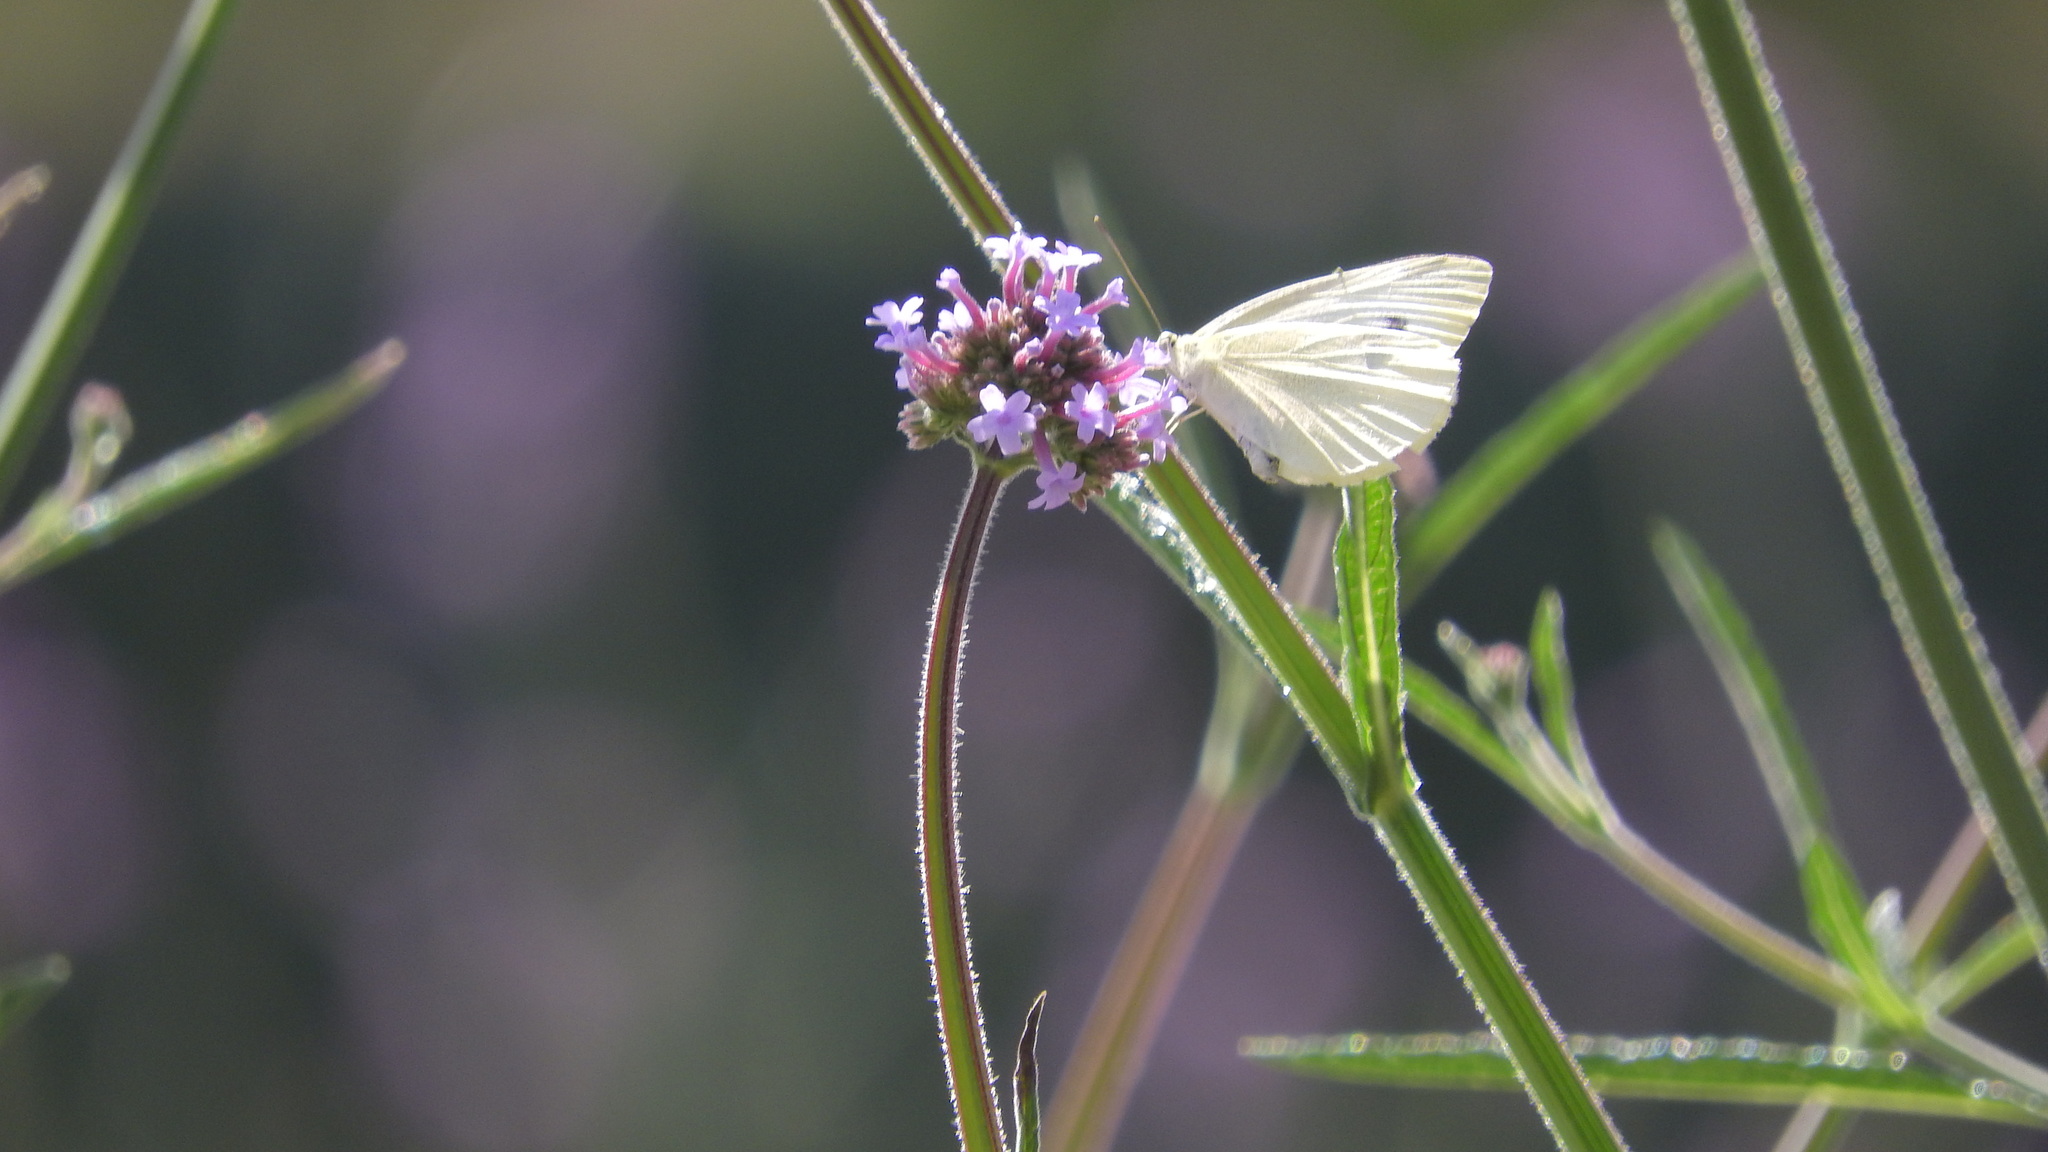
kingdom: Animalia
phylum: Arthropoda
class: Insecta
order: Lepidoptera
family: Pieridae
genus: Pieris
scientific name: Pieris rapae
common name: Small white
